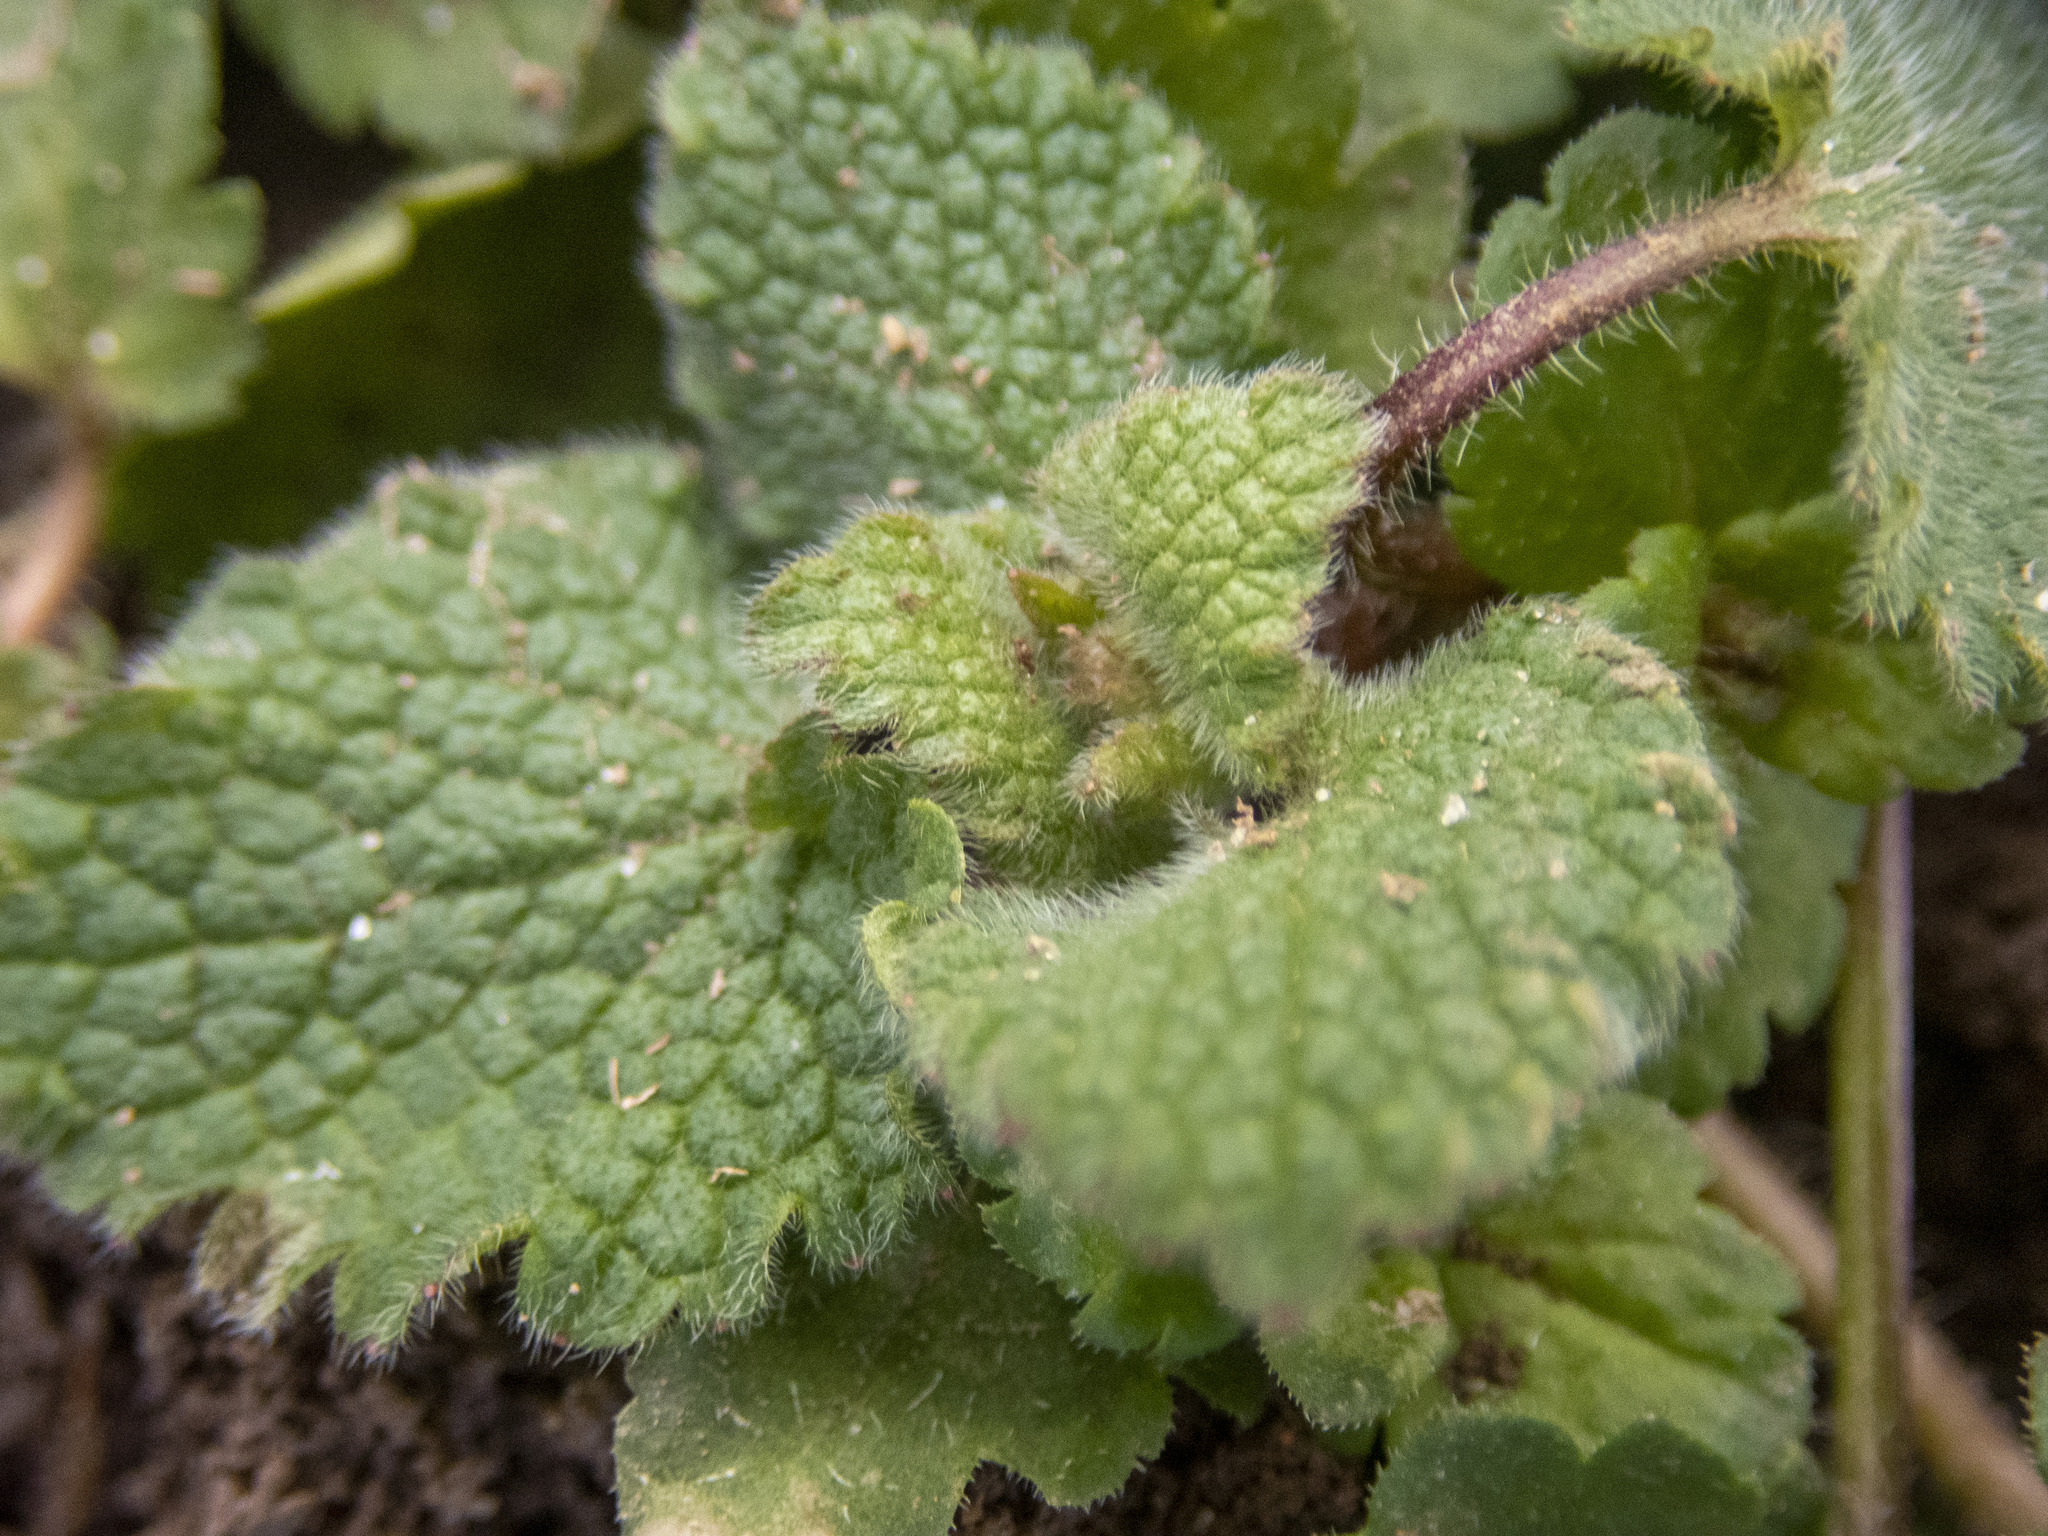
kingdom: Plantae
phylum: Tracheophyta
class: Magnoliopsida
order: Lamiales
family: Lamiaceae
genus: Lamium
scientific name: Lamium purpureum
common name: Red dead-nettle
